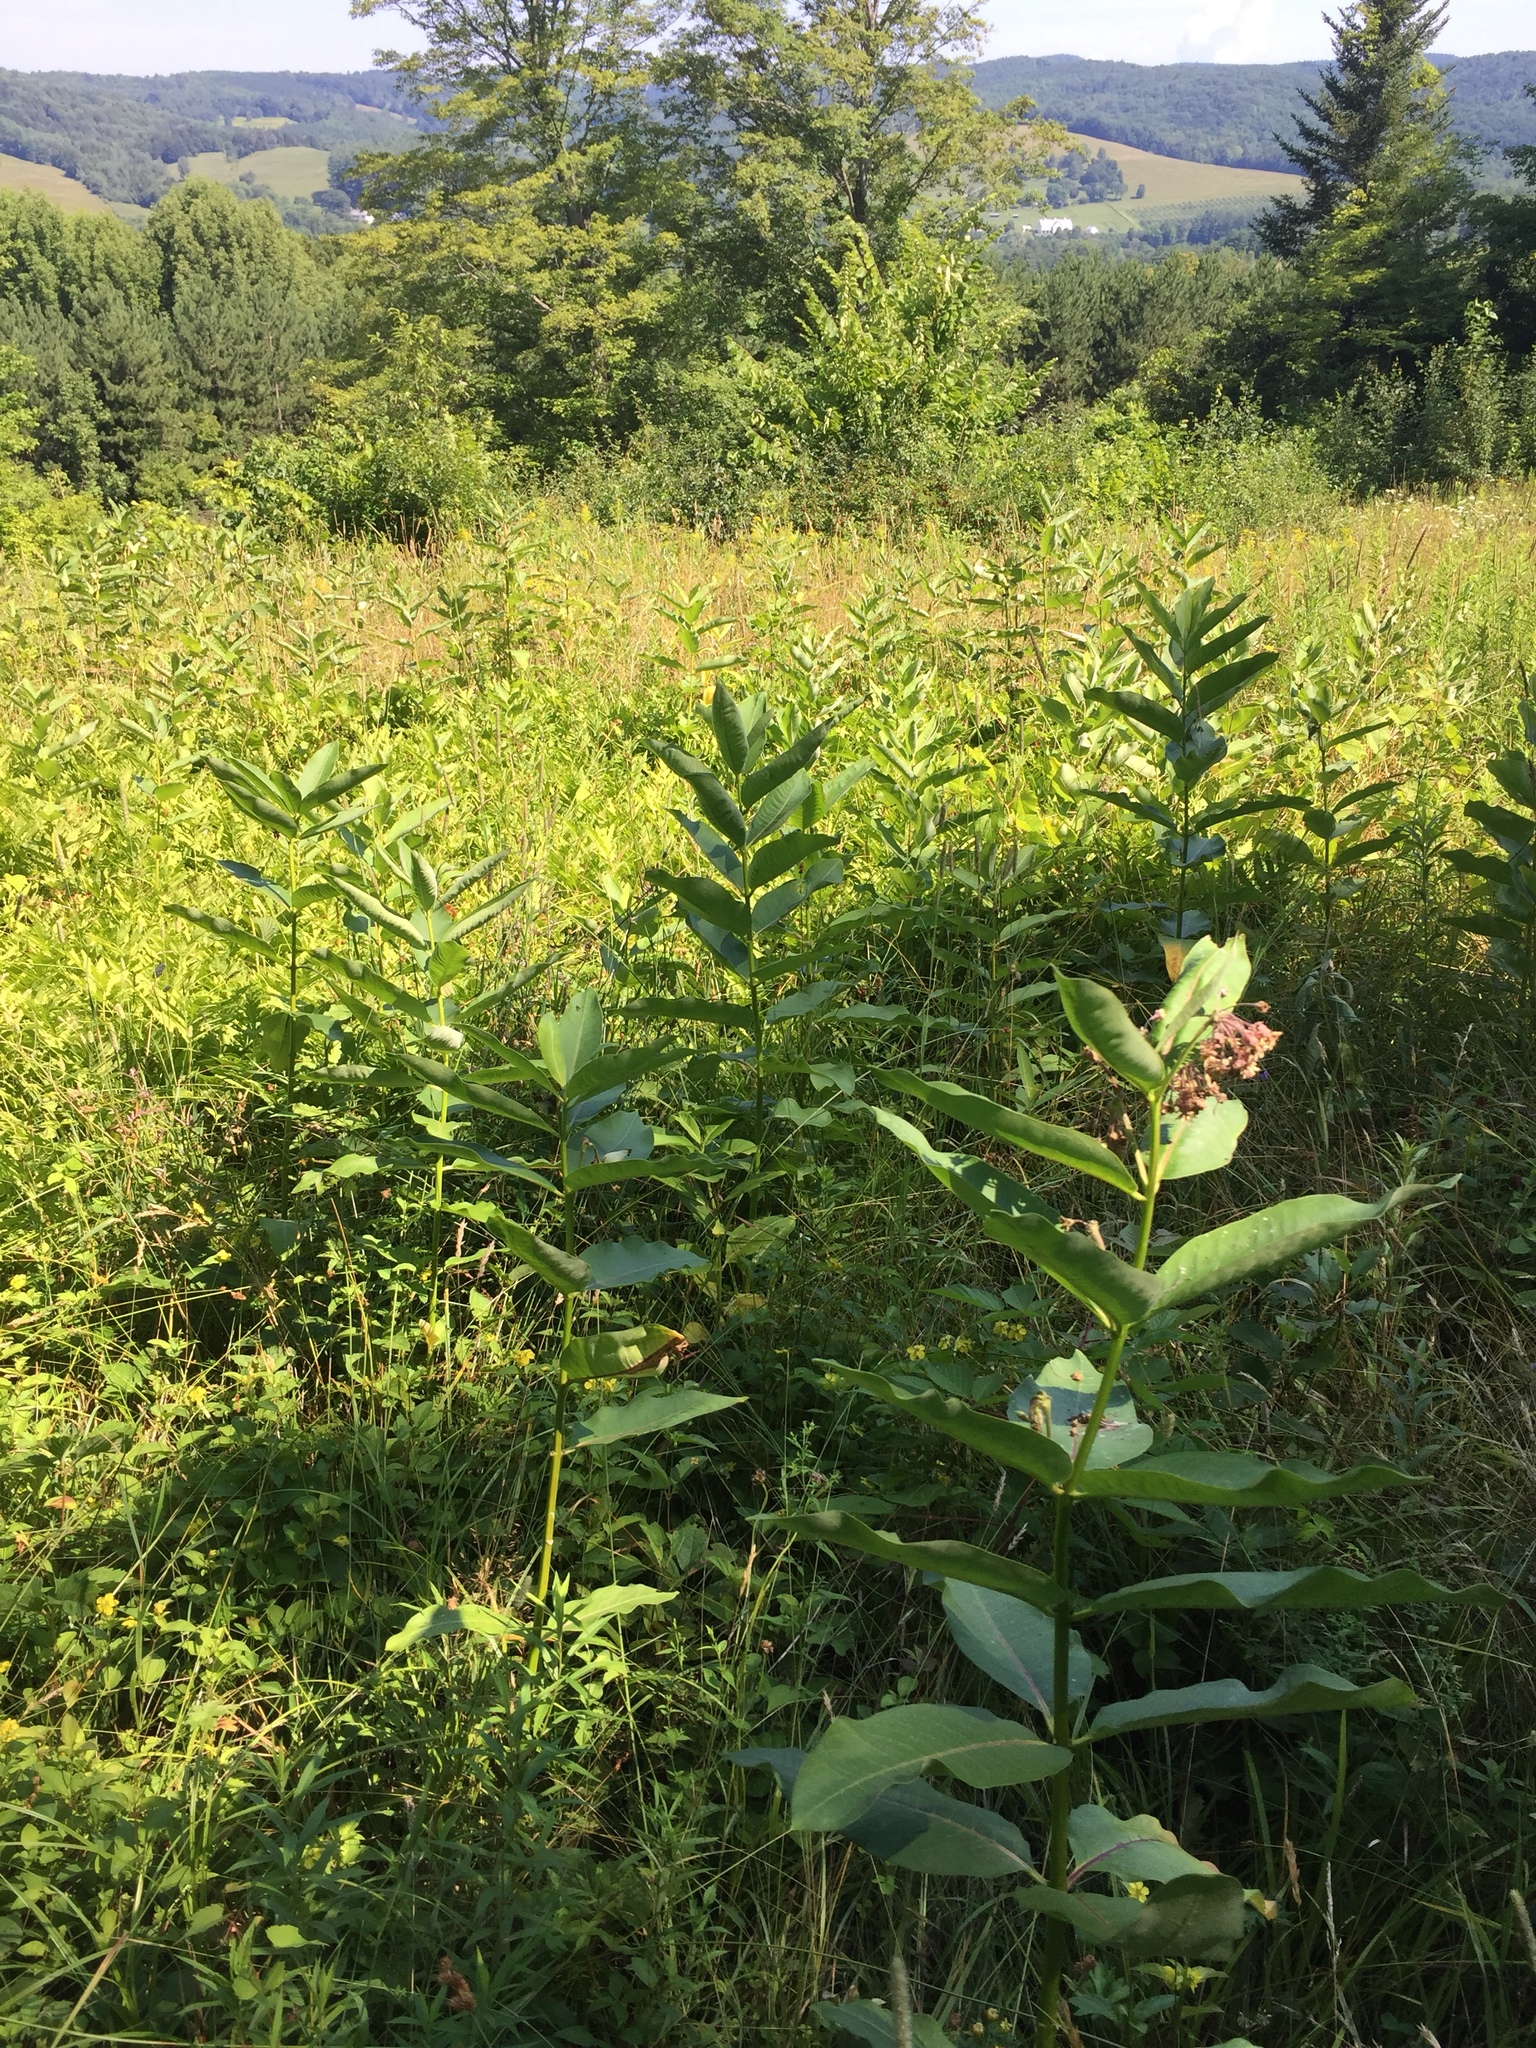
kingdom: Plantae
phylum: Tracheophyta
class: Magnoliopsida
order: Gentianales
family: Apocynaceae
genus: Asclepias
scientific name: Asclepias syriaca
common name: Common milkweed
